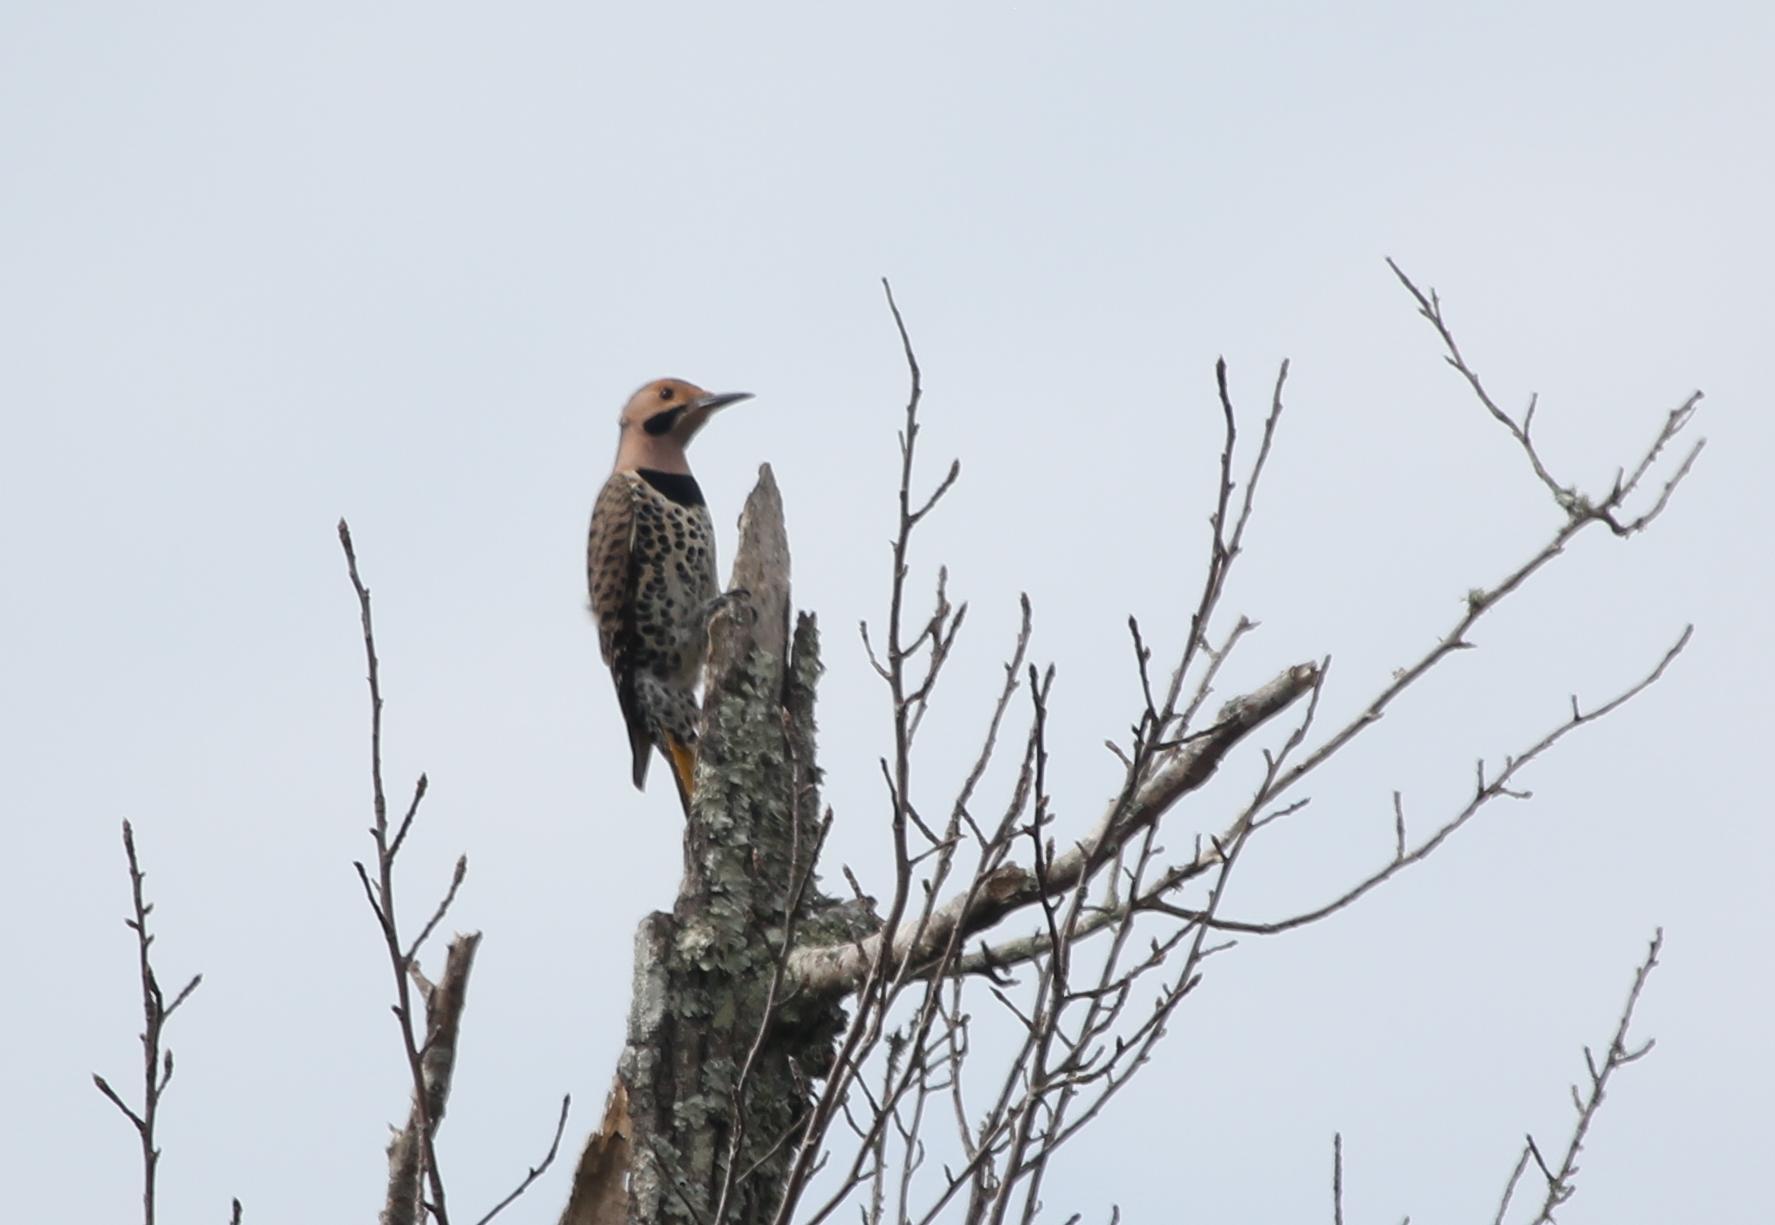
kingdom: Animalia
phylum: Chordata
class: Aves
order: Piciformes
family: Picidae
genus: Colaptes
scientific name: Colaptes auratus
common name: Northern flicker
